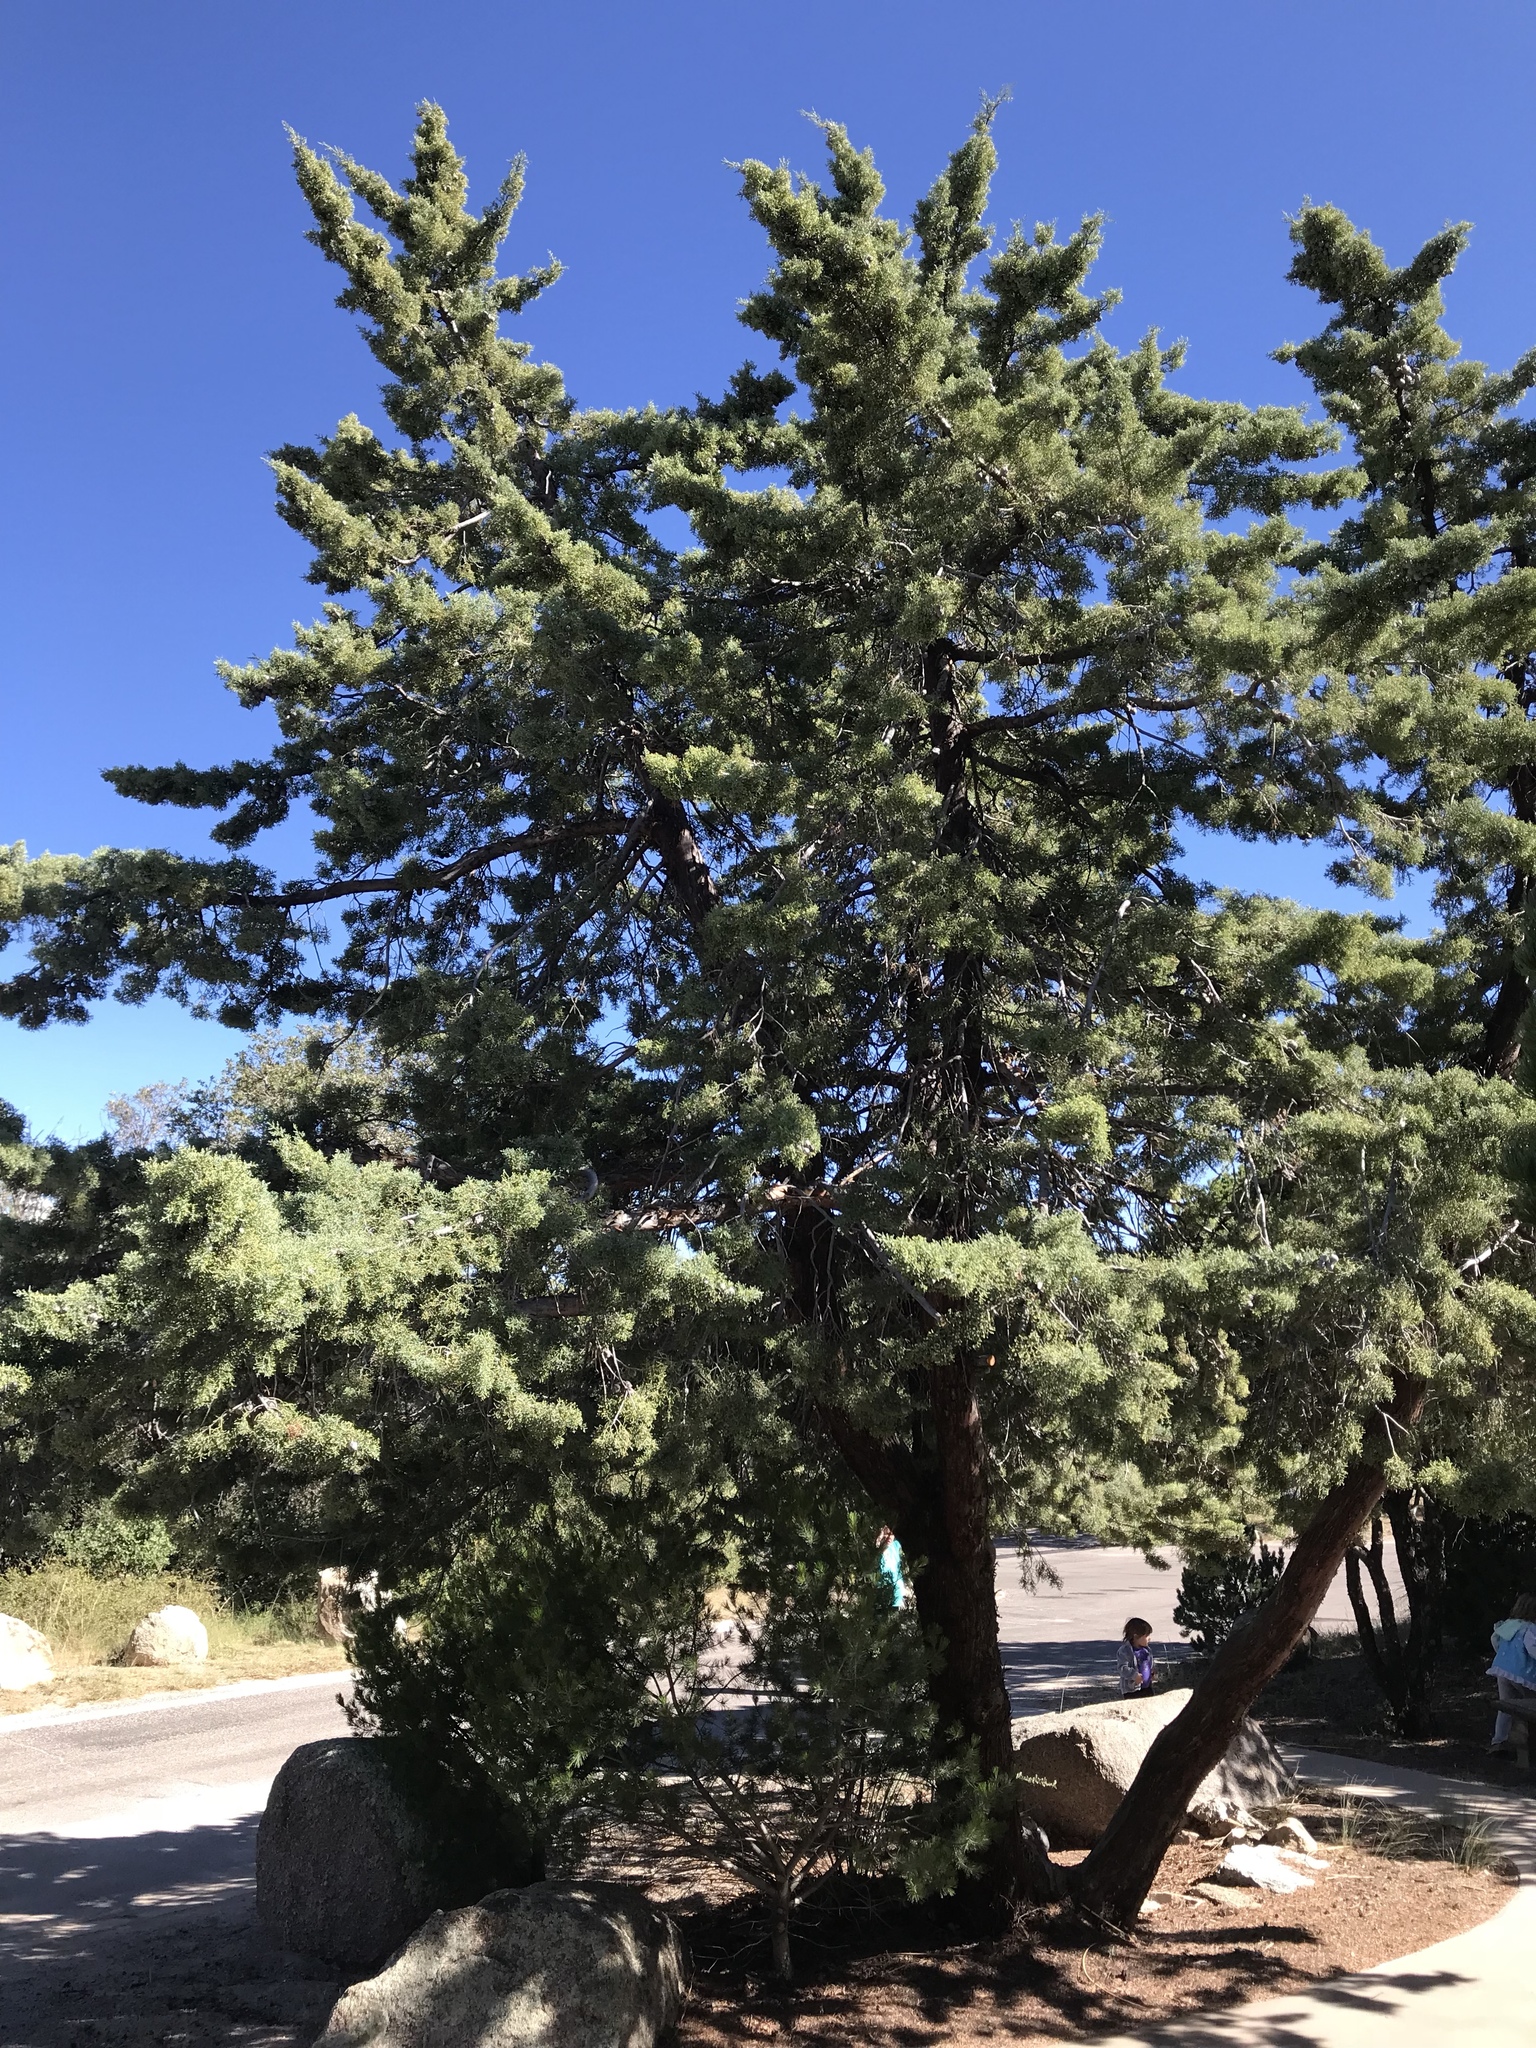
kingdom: Plantae
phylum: Tracheophyta
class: Pinopsida
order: Pinales
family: Cupressaceae
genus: Cupressus
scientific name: Cupressus arizonica
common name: Arizona cypress
